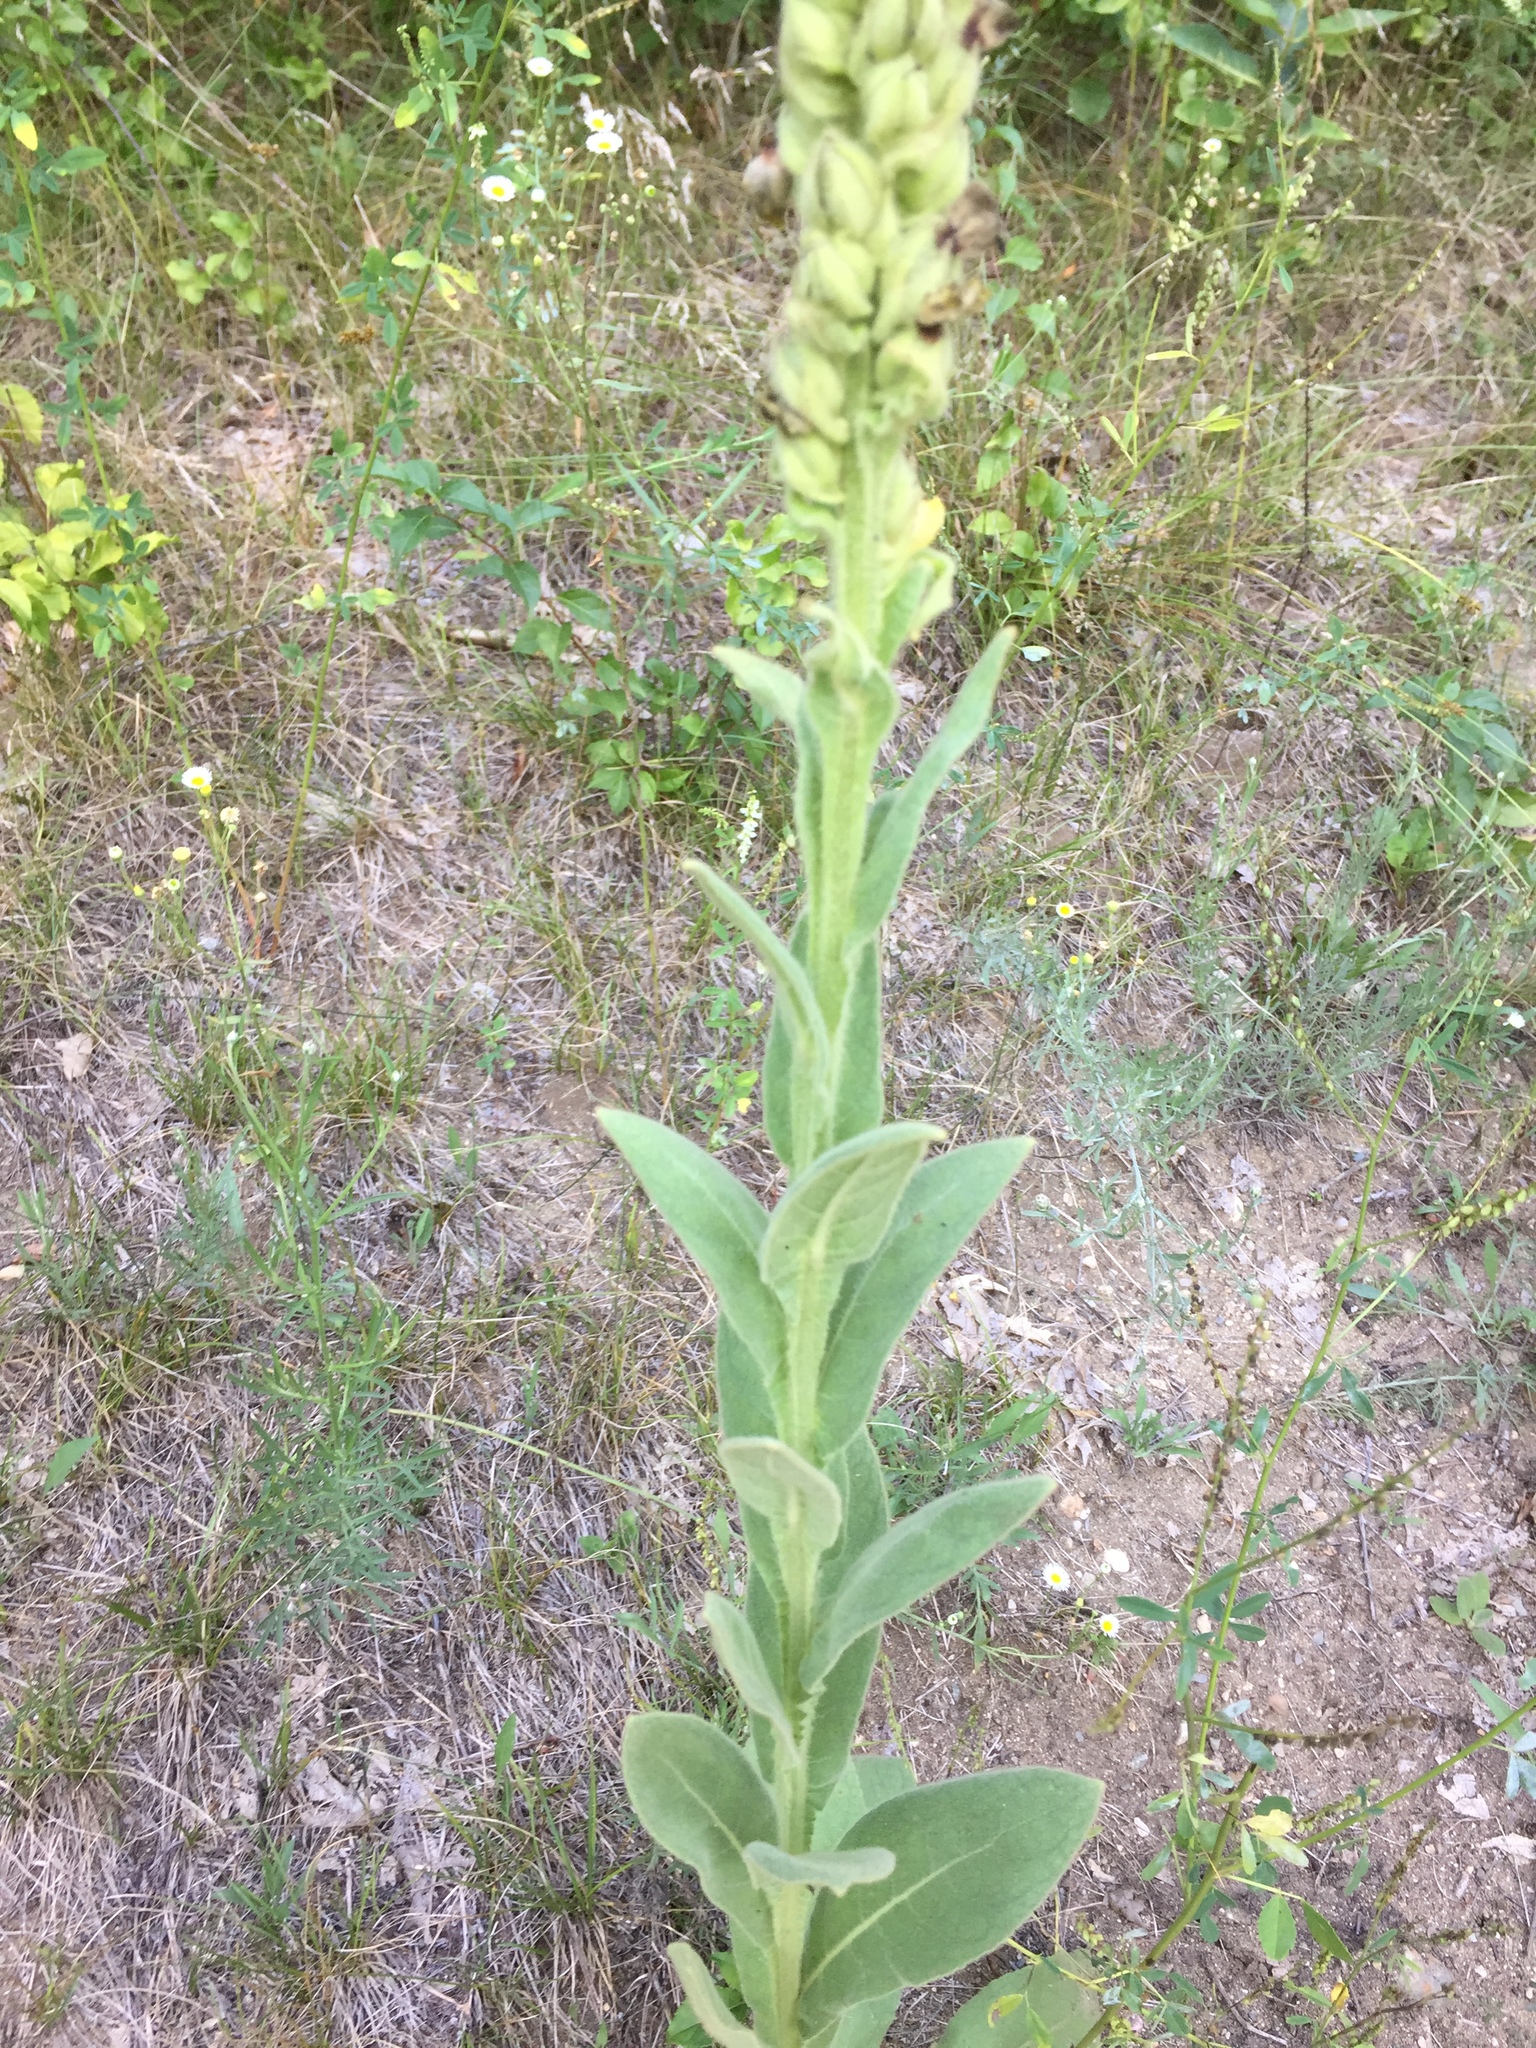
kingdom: Plantae
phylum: Tracheophyta
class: Magnoliopsida
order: Lamiales
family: Scrophulariaceae
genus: Verbascum
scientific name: Verbascum thapsus
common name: Common mullein
